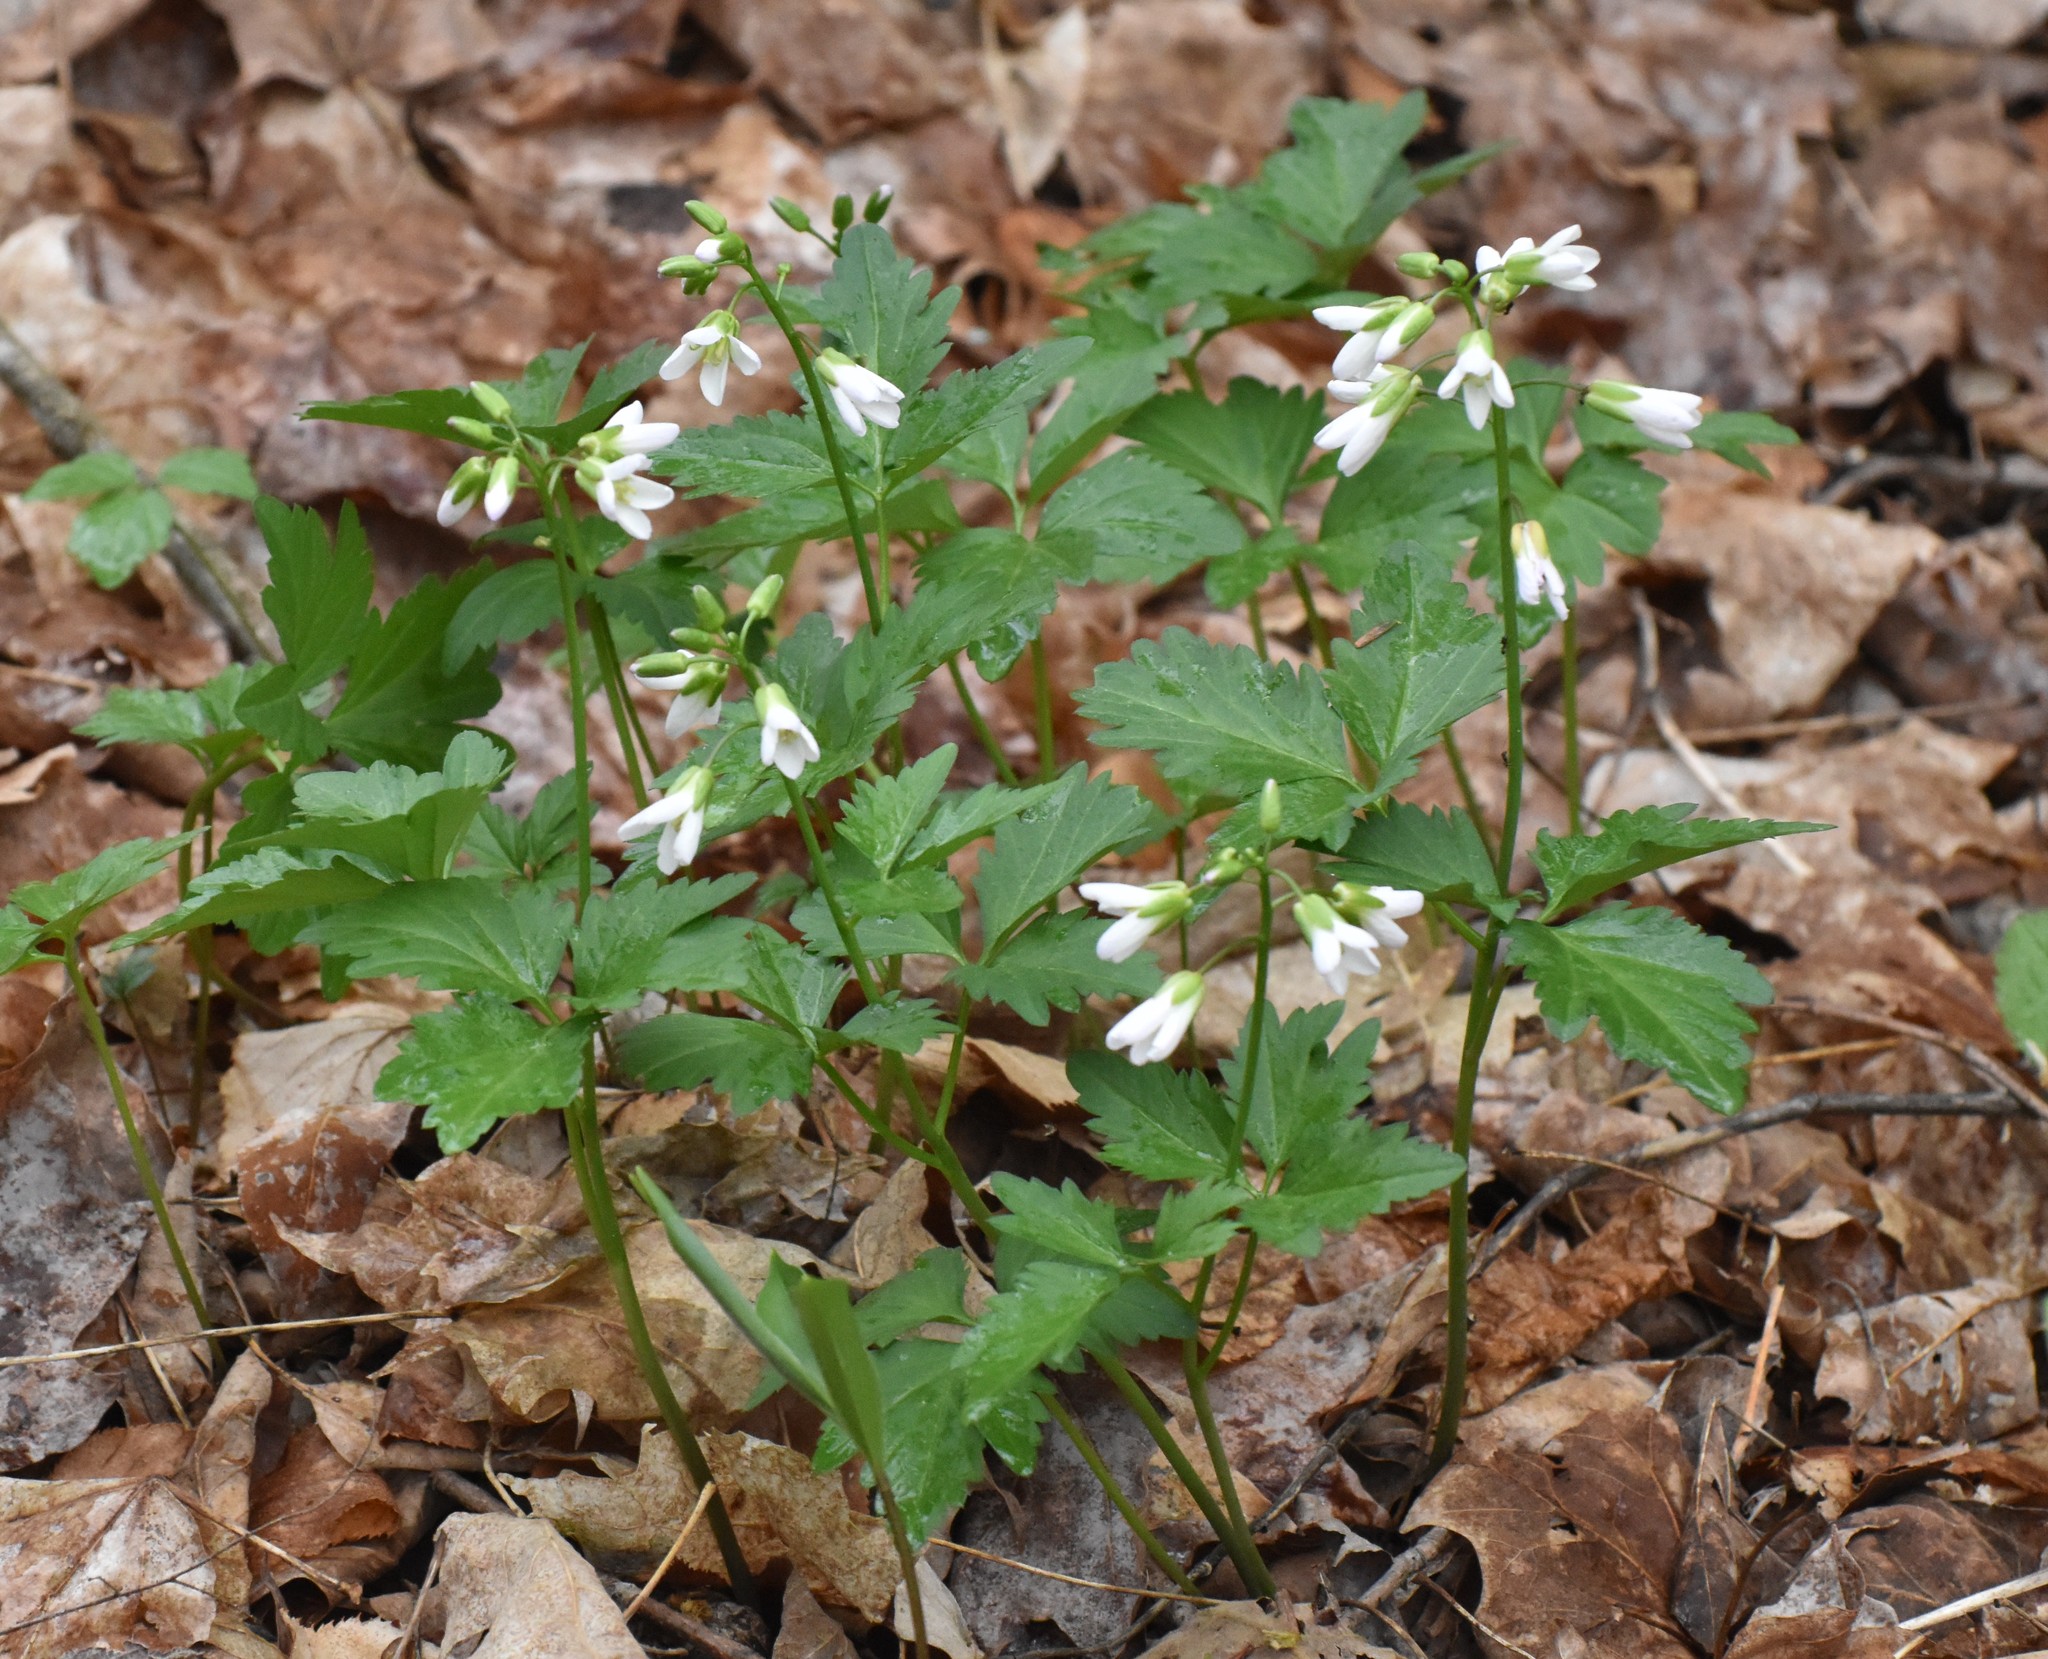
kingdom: Plantae
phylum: Tracheophyta
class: Magnoliopsida
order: Brassicales
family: Brassicaceae
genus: Cardamine
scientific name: Cardamine diphylla
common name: Broad-leaved toothwort
